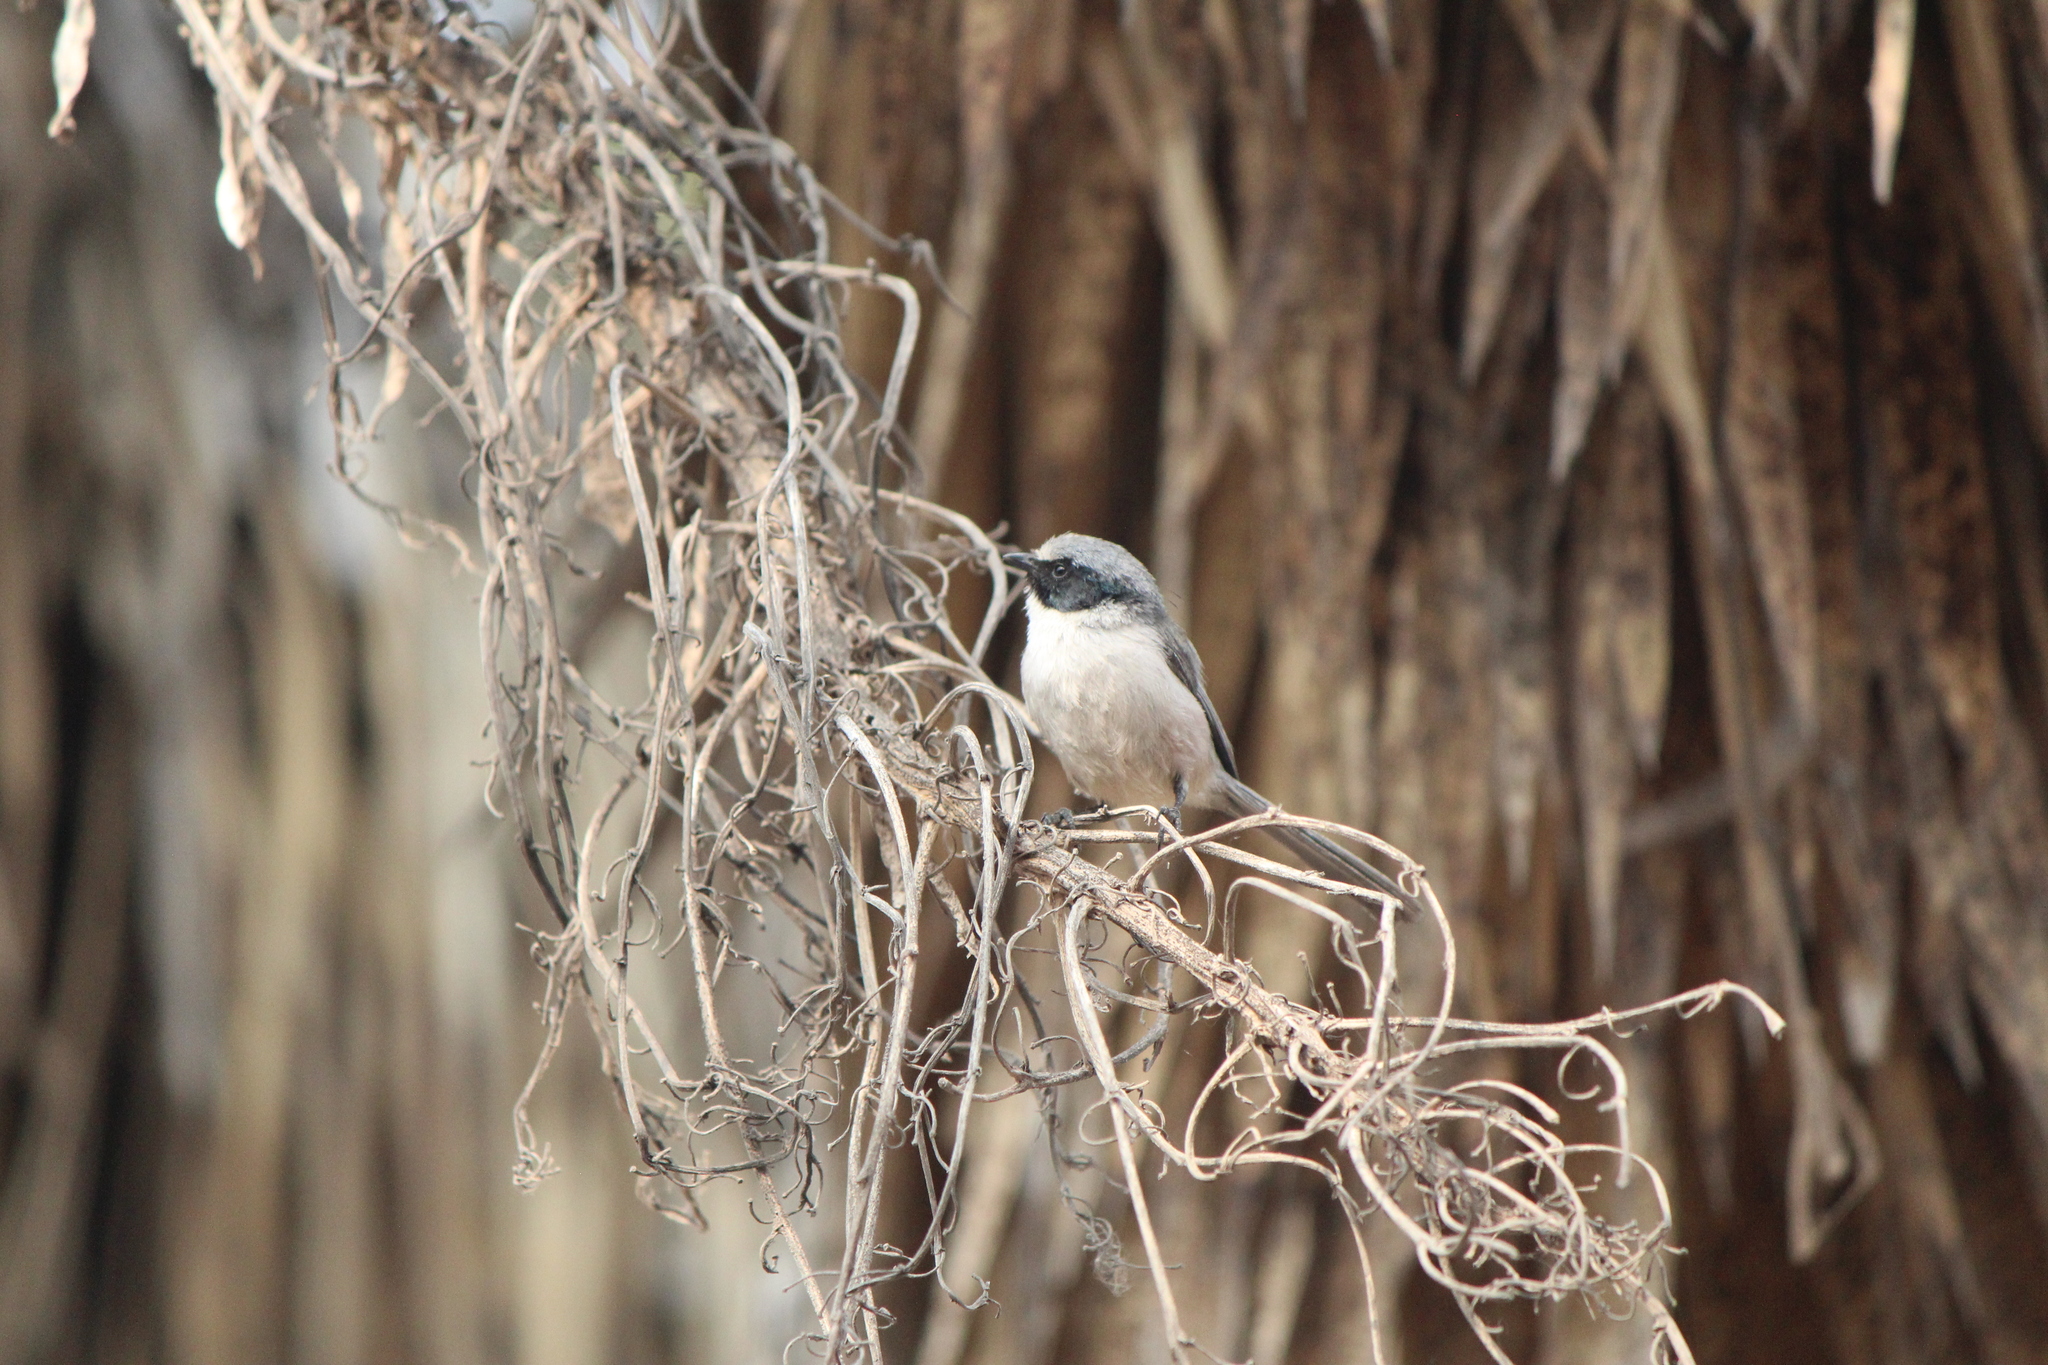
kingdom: Animalia
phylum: Chordata
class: Aves
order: Passeriformes
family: Aegithalidae
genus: Psaltriparus
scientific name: Psaltriparus minimus
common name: American bushtit
